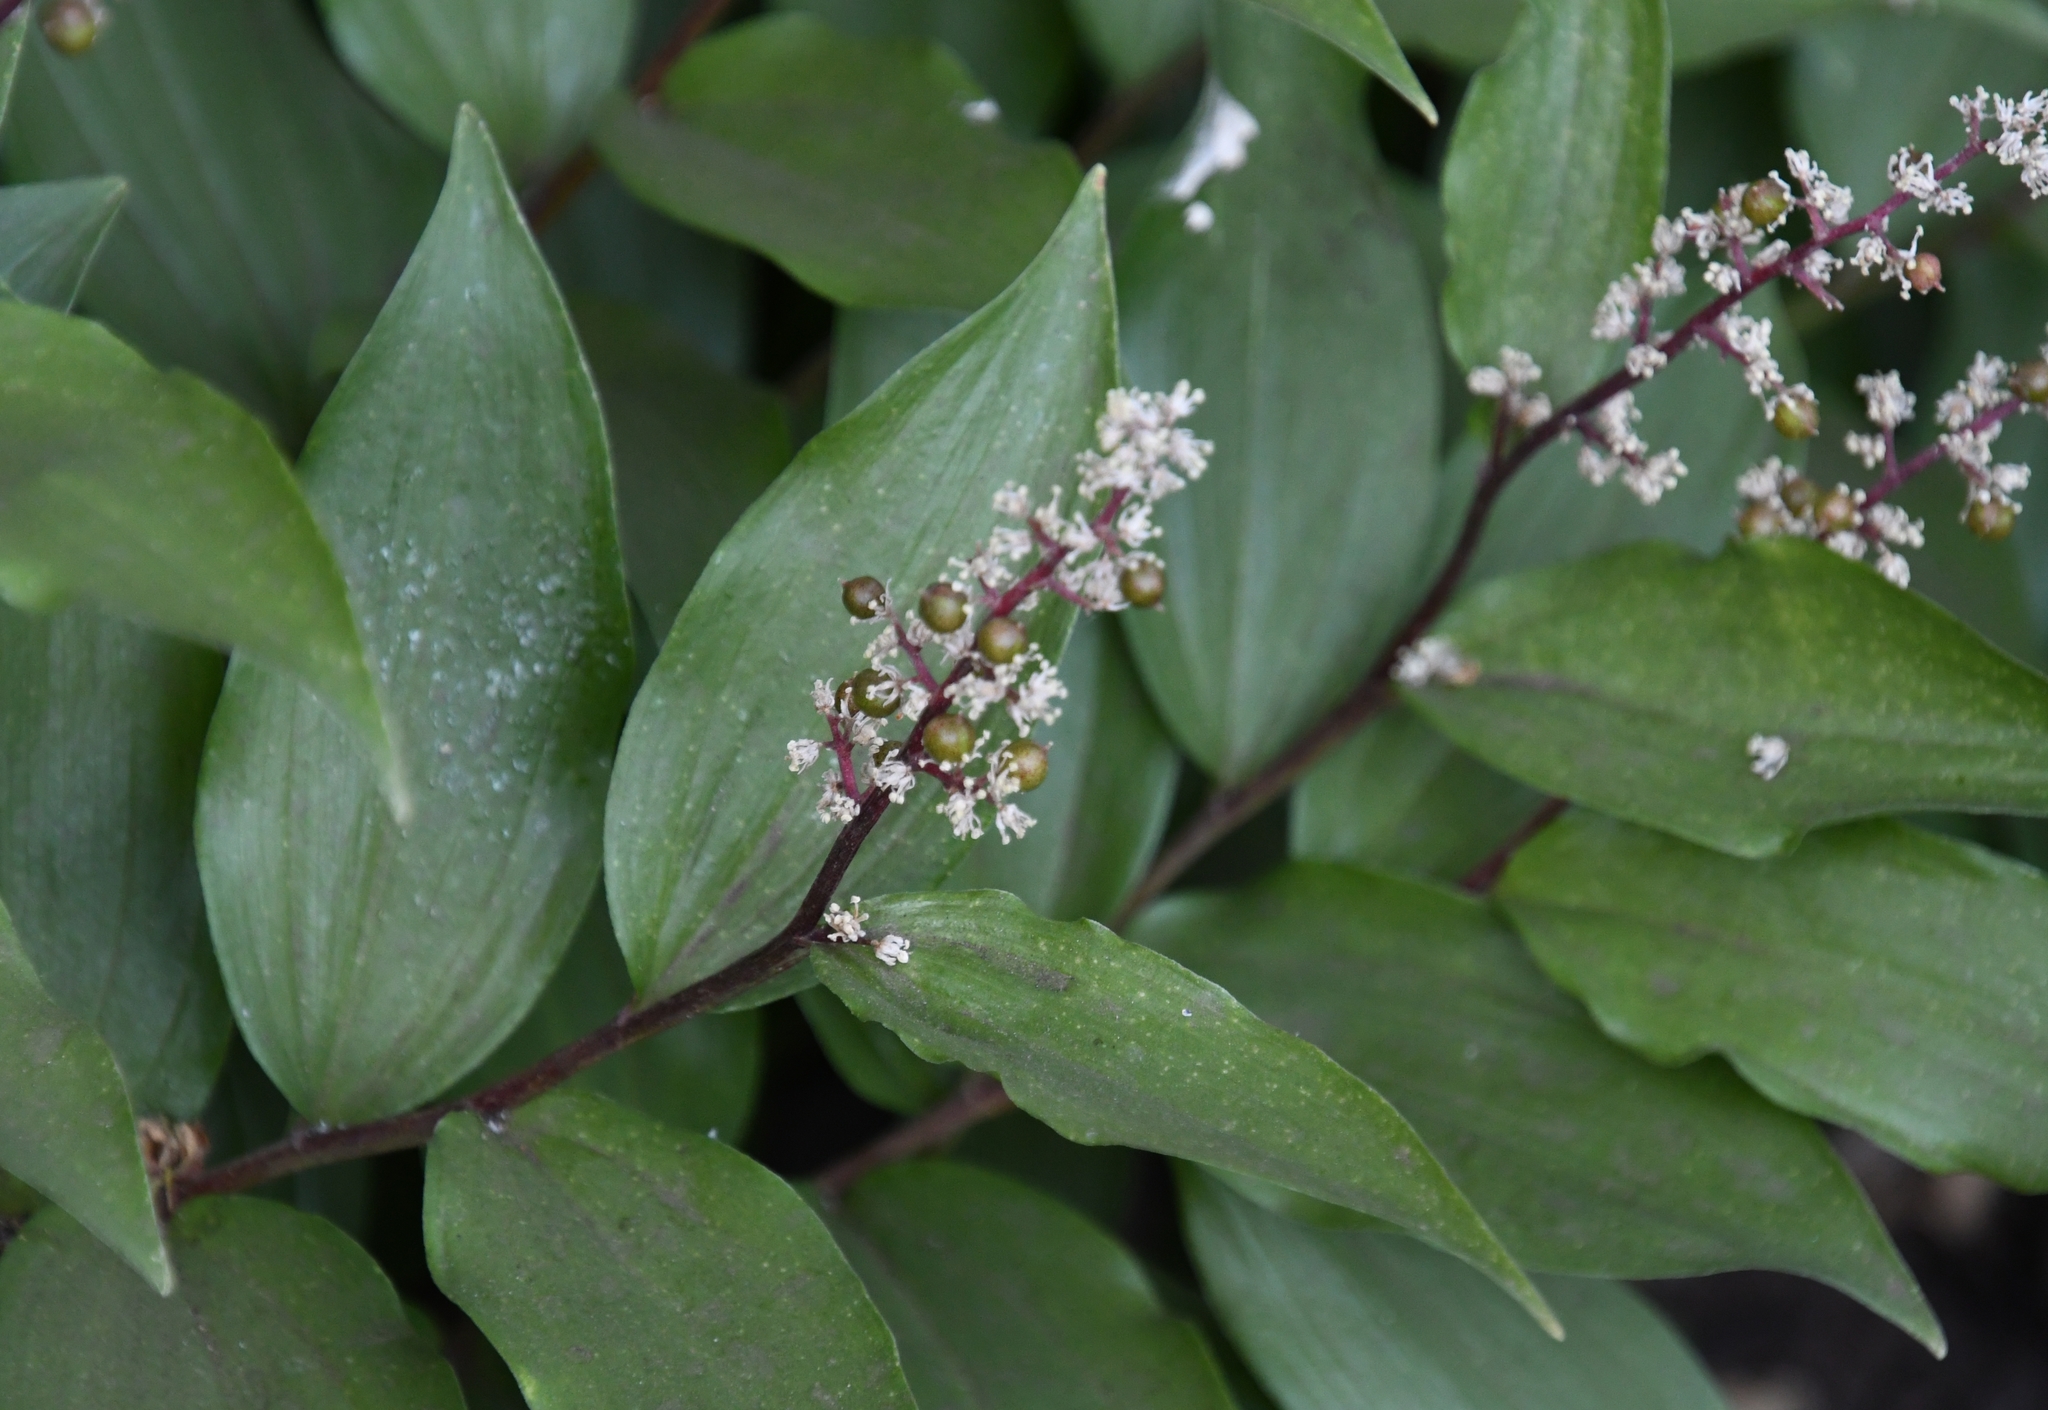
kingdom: Plantae
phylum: Tracheophyta
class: Liliopsida
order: Asparagales
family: Asparagaceae
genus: Maianthemum
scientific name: Maianthemum racemosum
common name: False spikenard
